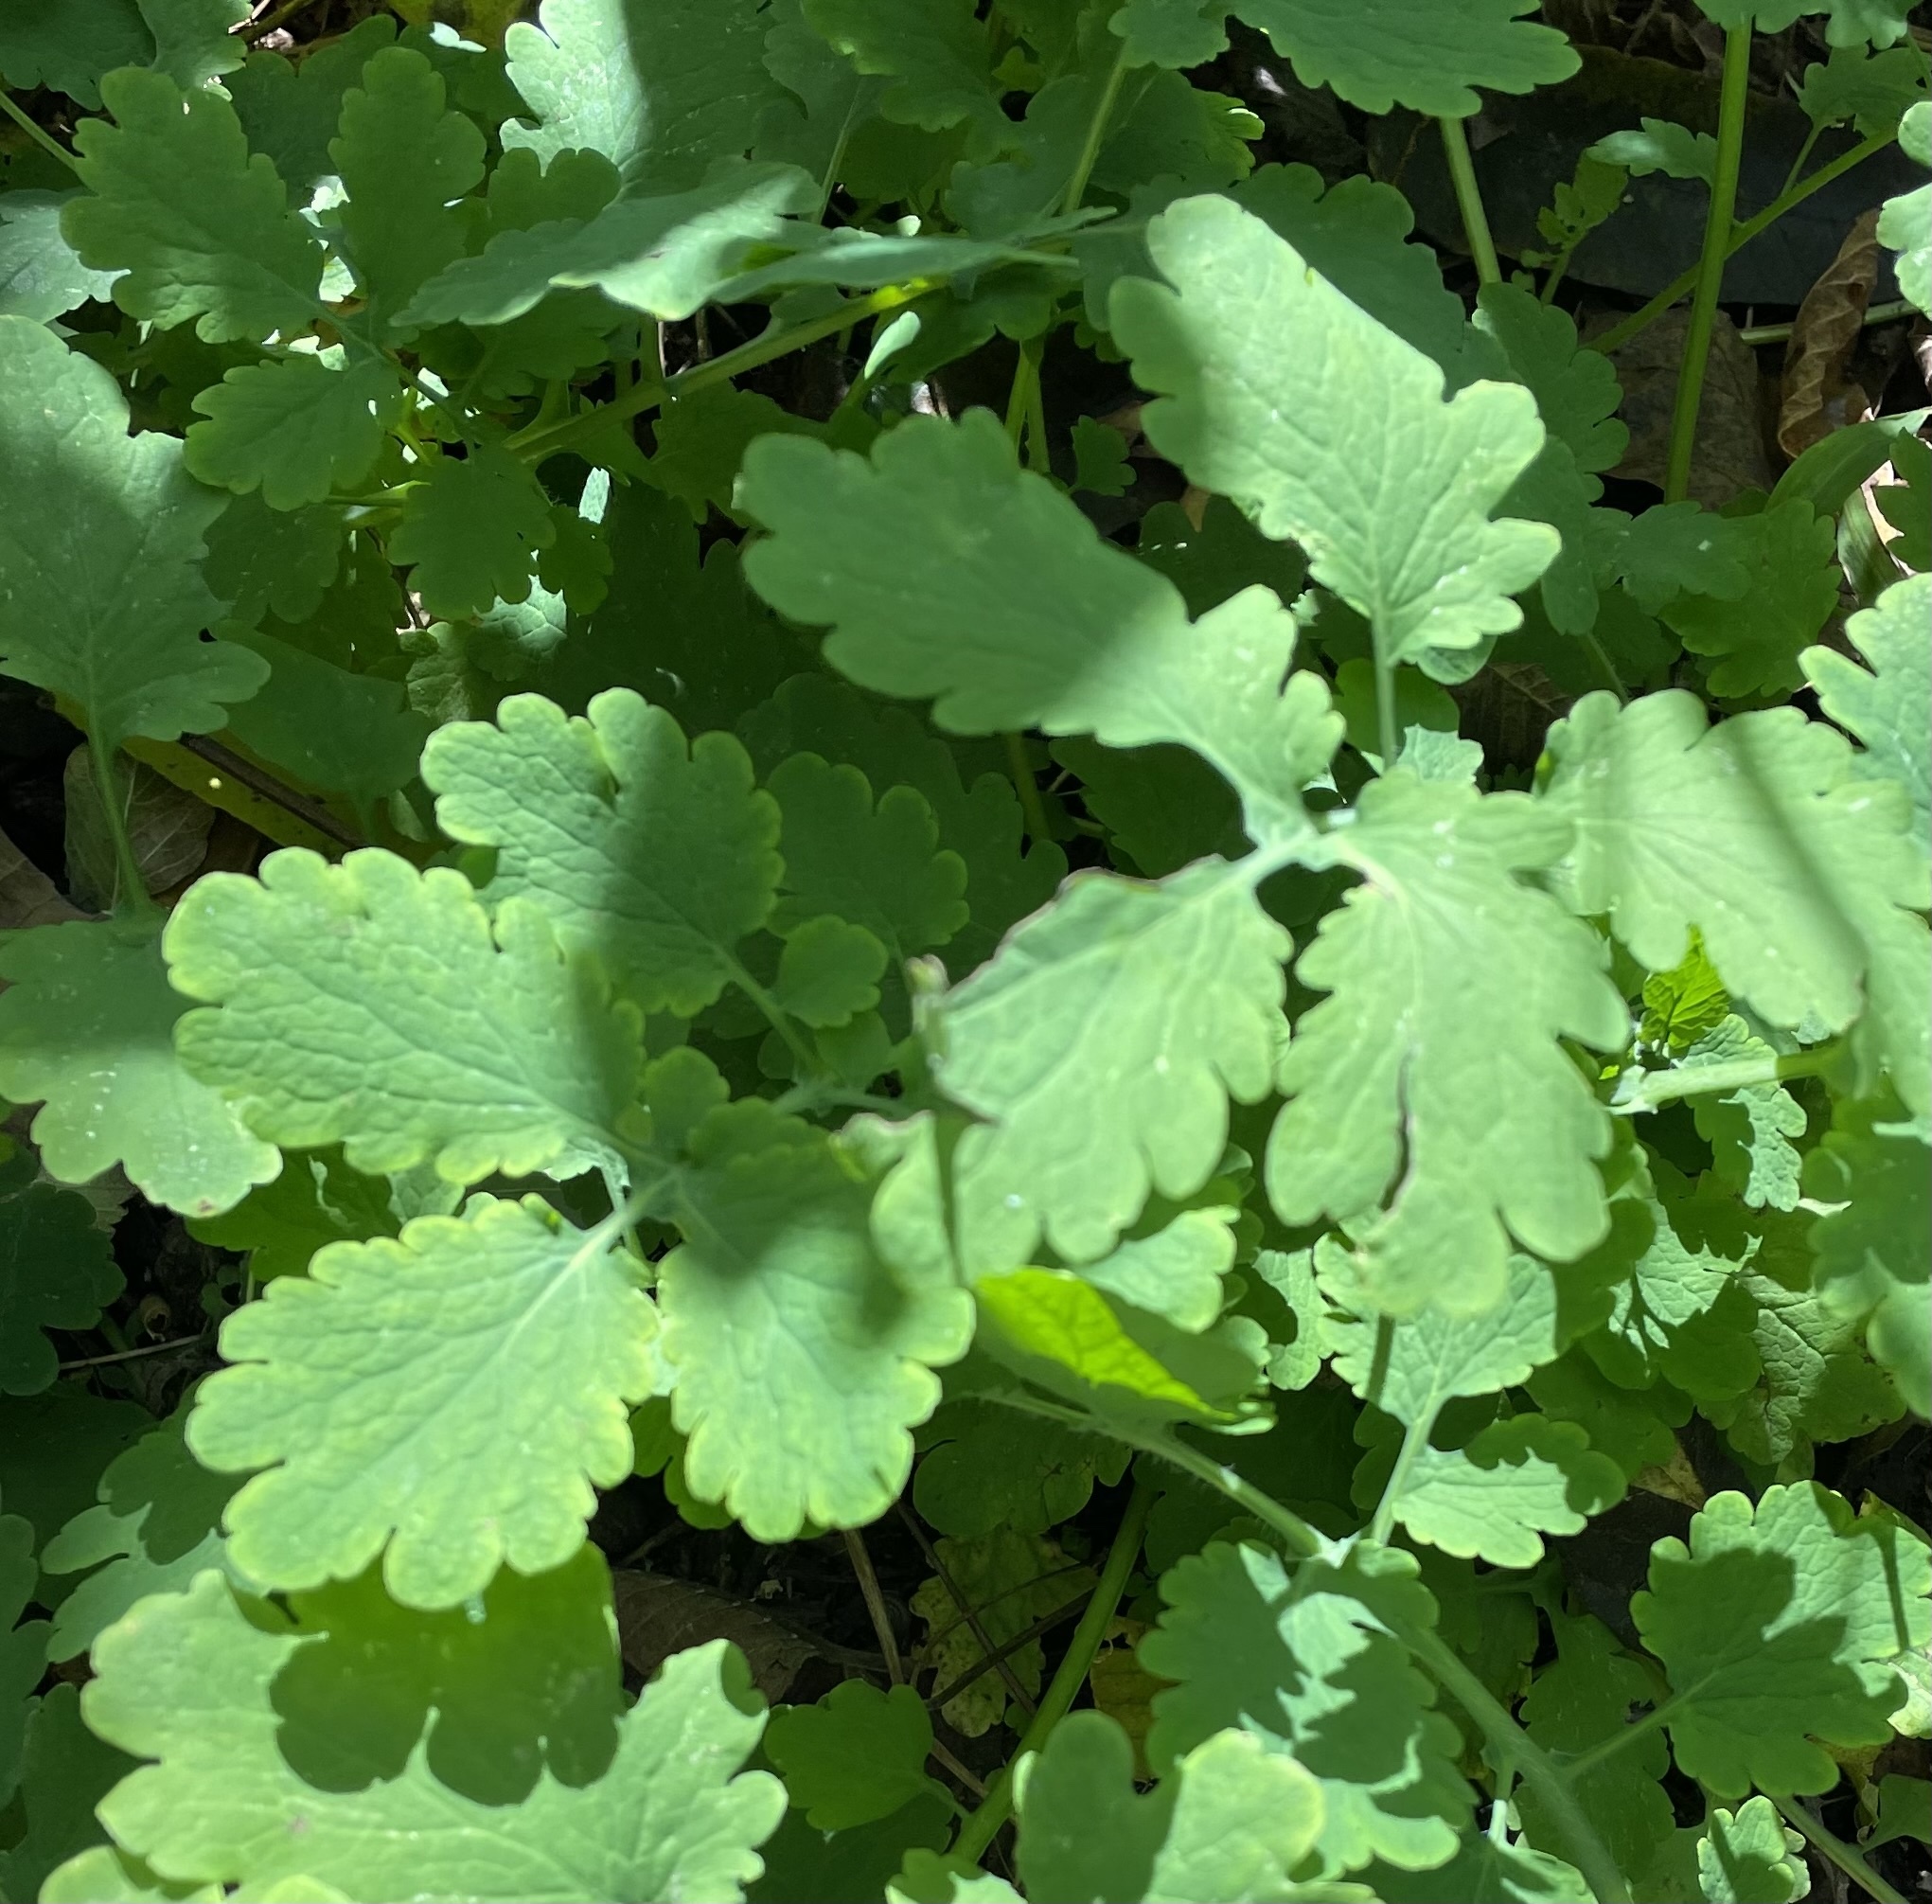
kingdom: Plantae
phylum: Tracheophyta
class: Magnoliopsida
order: Ranunculales
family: Papaveraceae
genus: Chelidonium
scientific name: Chelidonium majus
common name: Greater celandine
